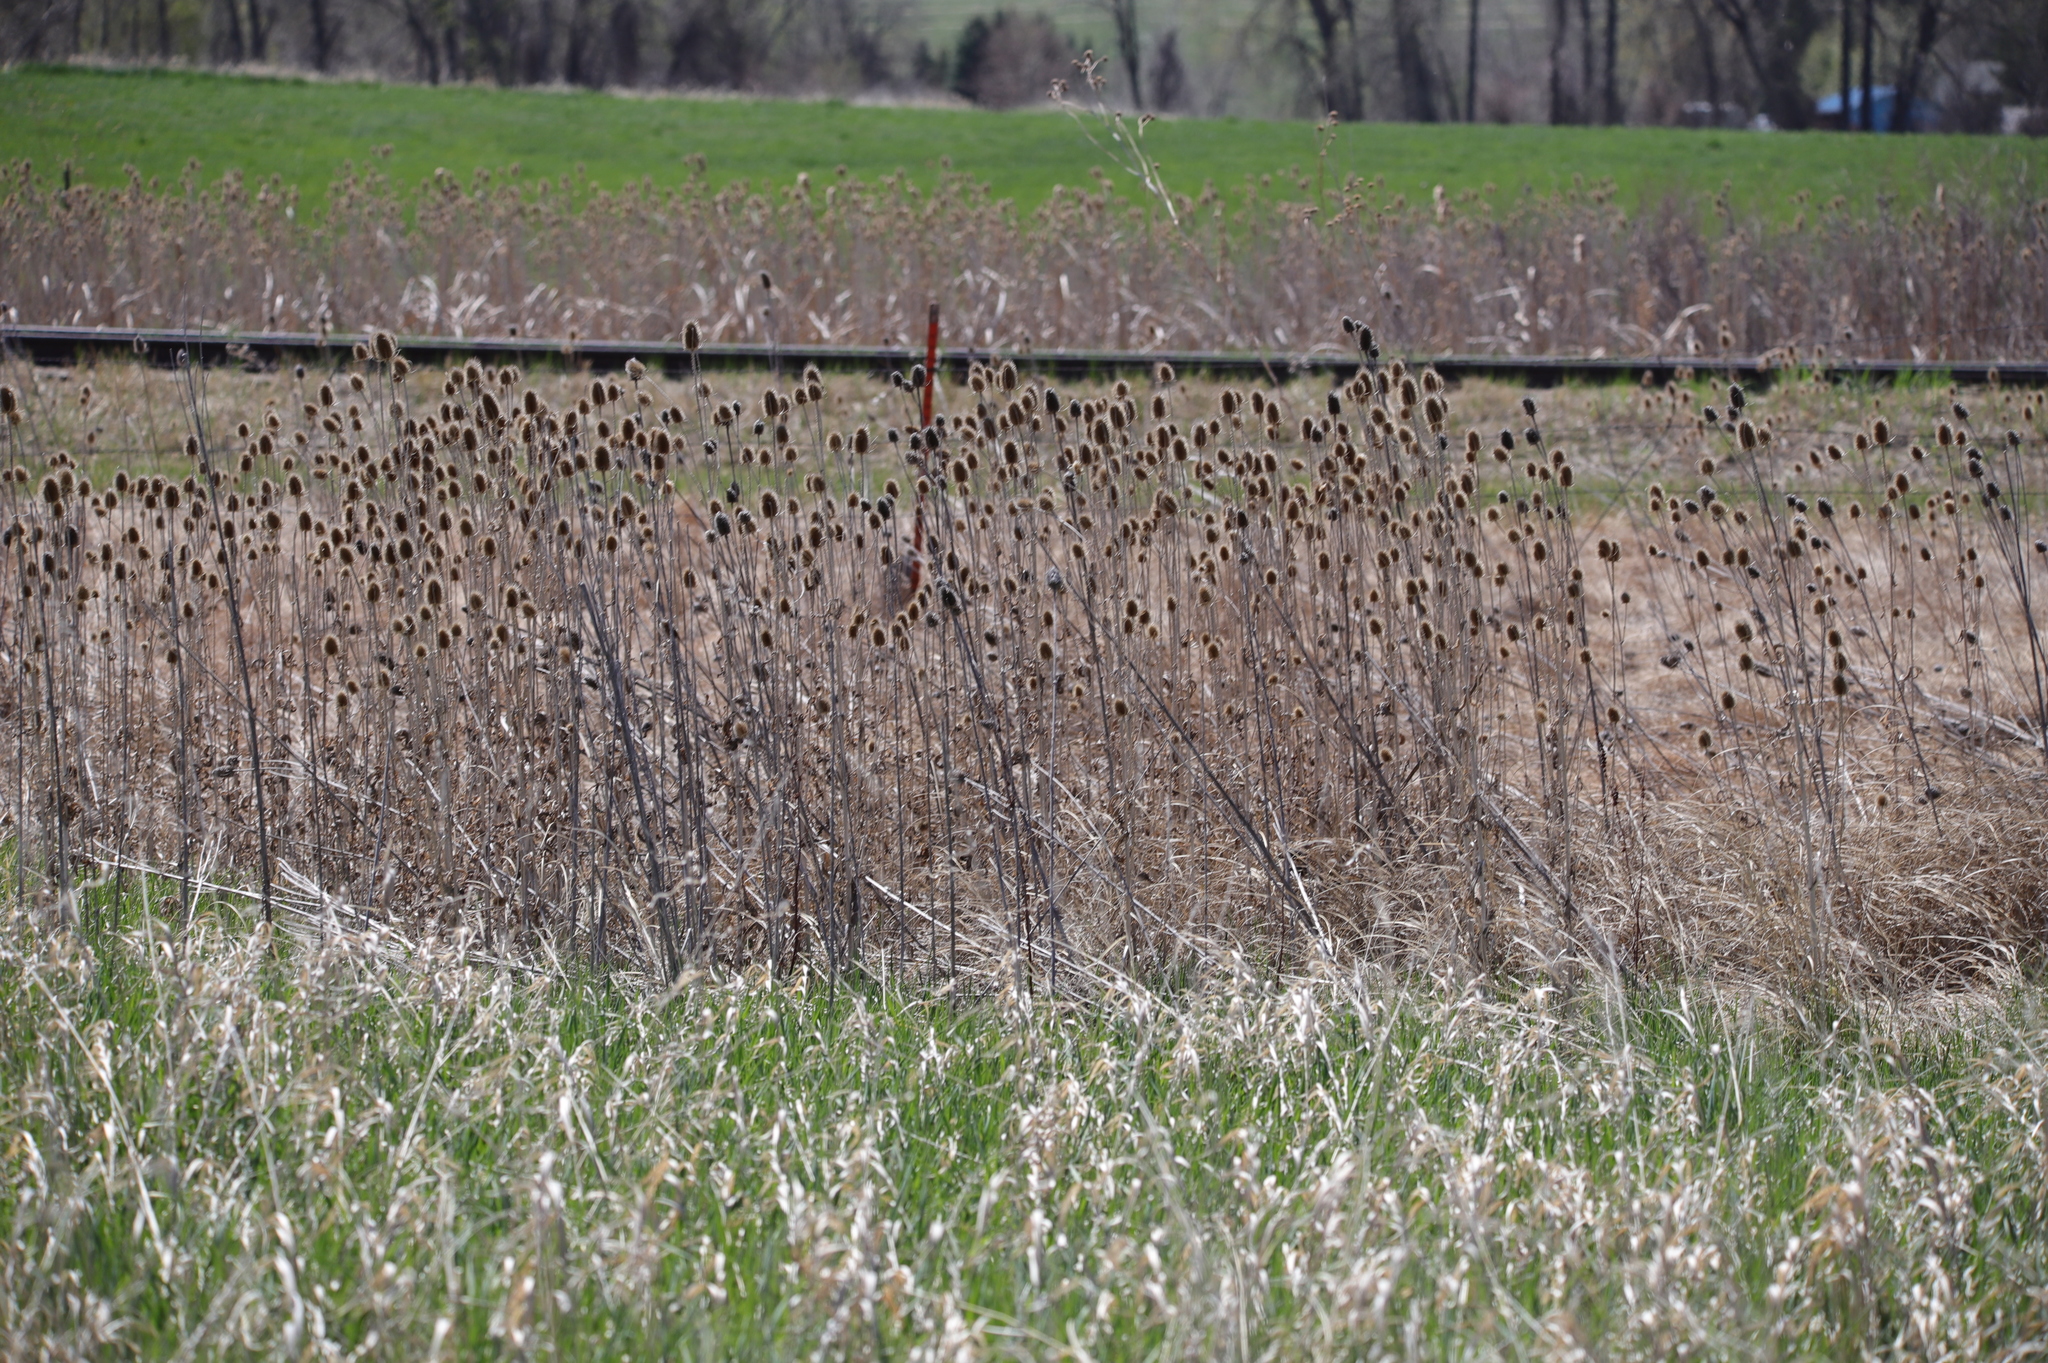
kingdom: Plantae
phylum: Tracheophyta
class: Magnoliopsida
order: Dipsacales
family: Caprifoliaceae
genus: Dipsacus
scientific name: Dipsacus fullonum
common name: Teasel
